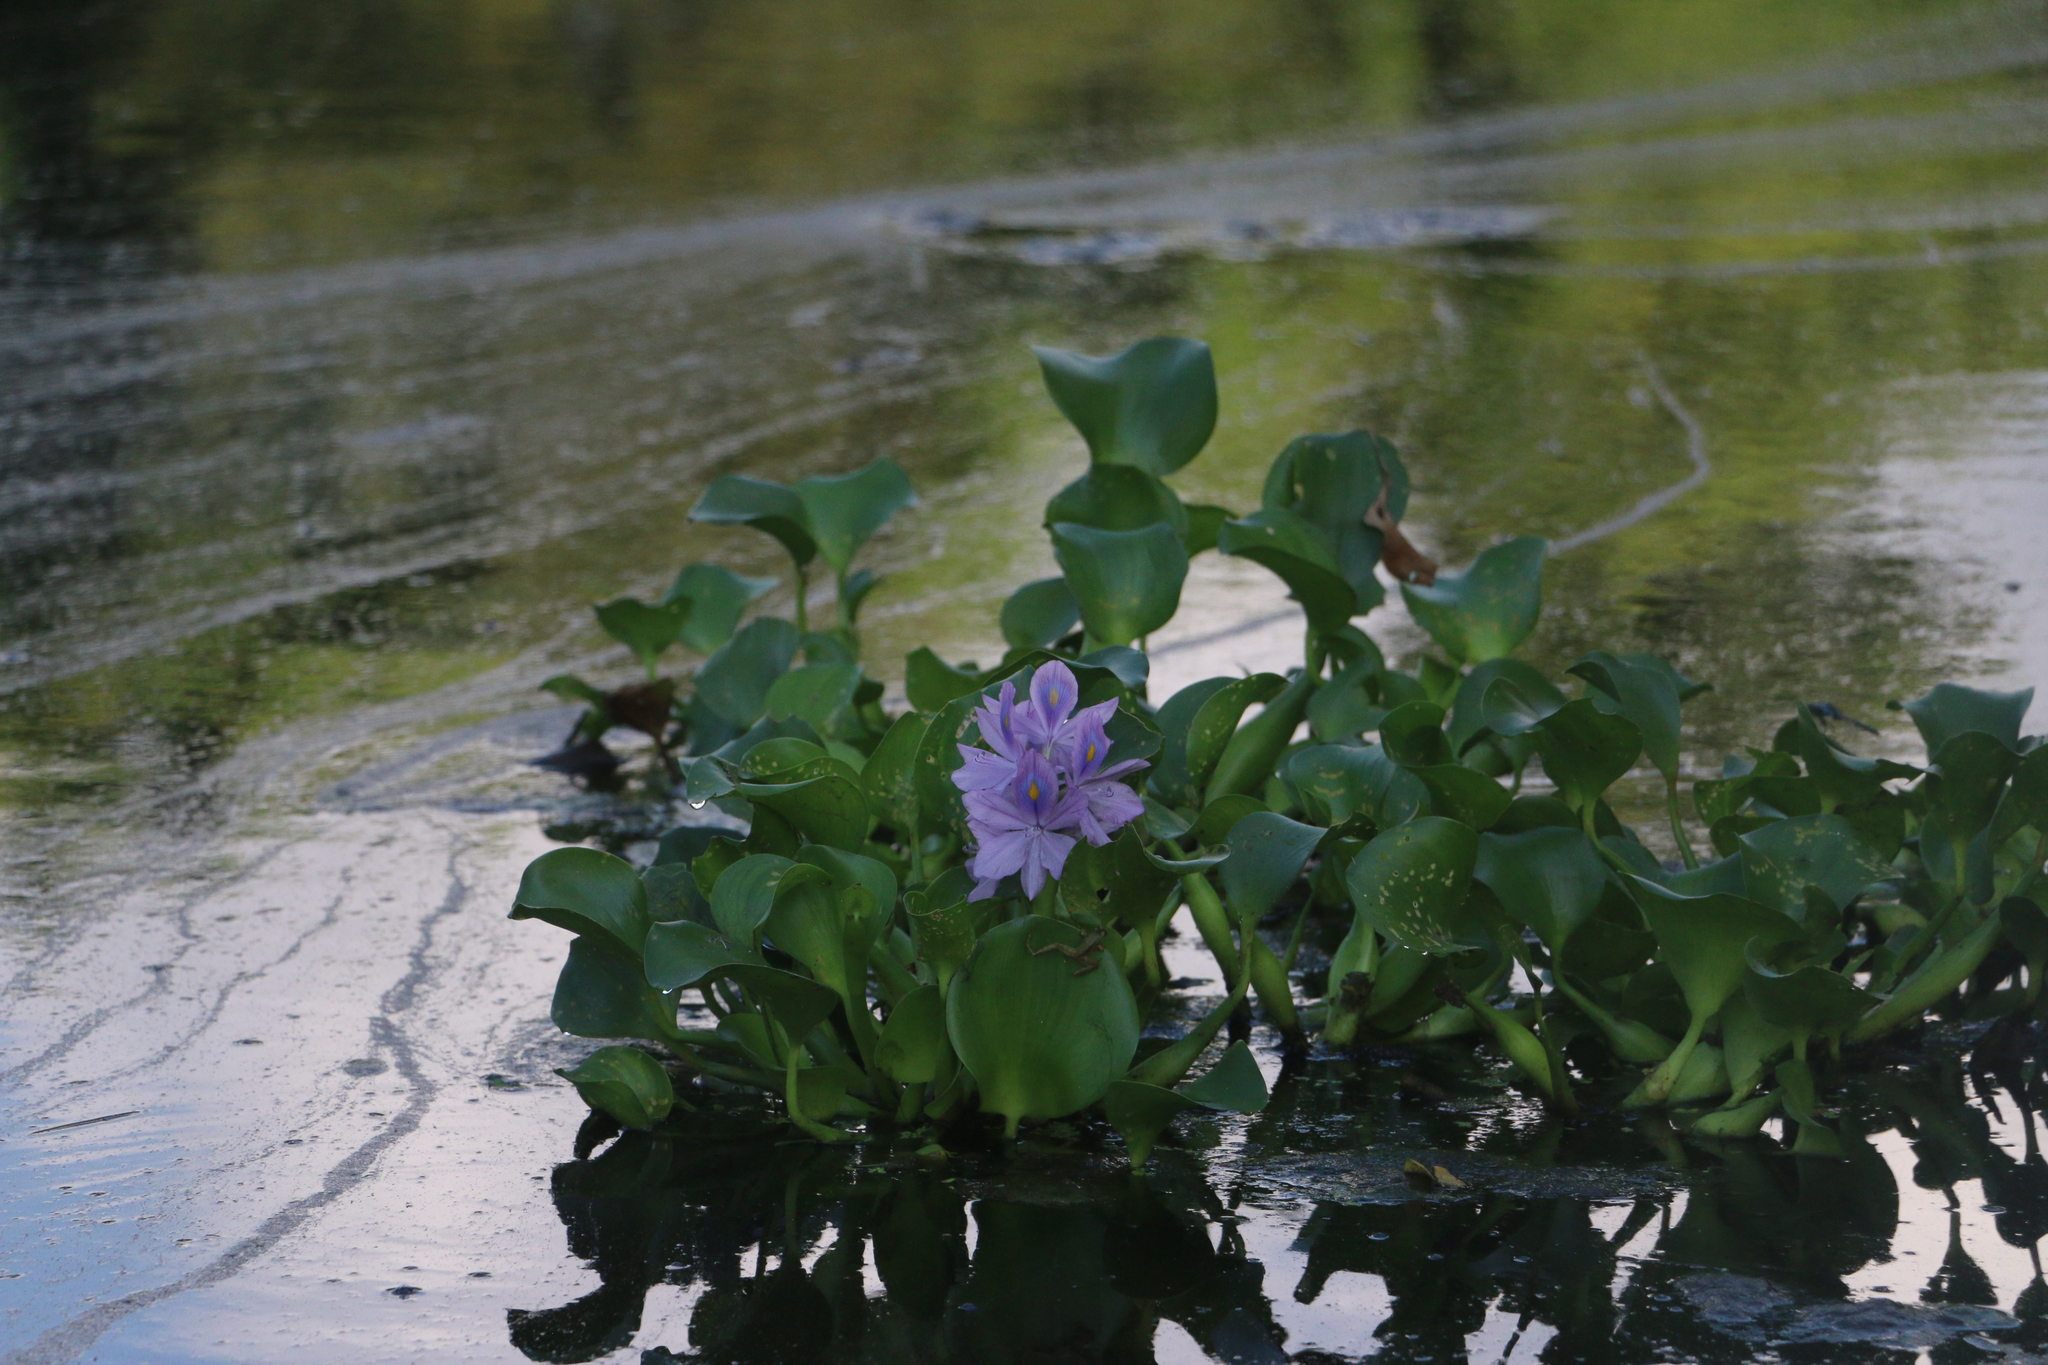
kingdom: Plantae
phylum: Tracheophyta
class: Liliopsida
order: Commelinales
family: Pontederiaceae
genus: Pontederia
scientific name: Pontederia crassipes
